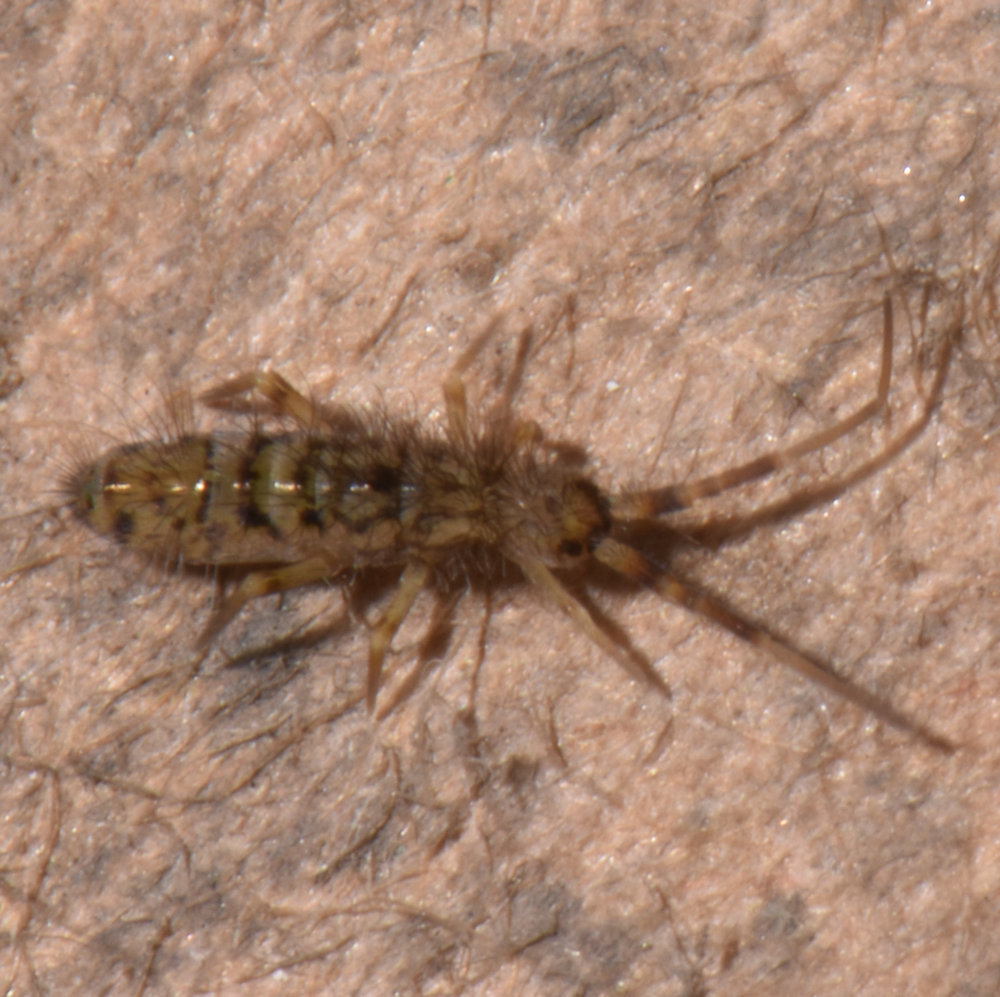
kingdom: Animalia
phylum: Arthropoda
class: Collembola
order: Entomobryomorpha
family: Orchesellidae
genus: Orchesella
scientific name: Orchesella villosa
